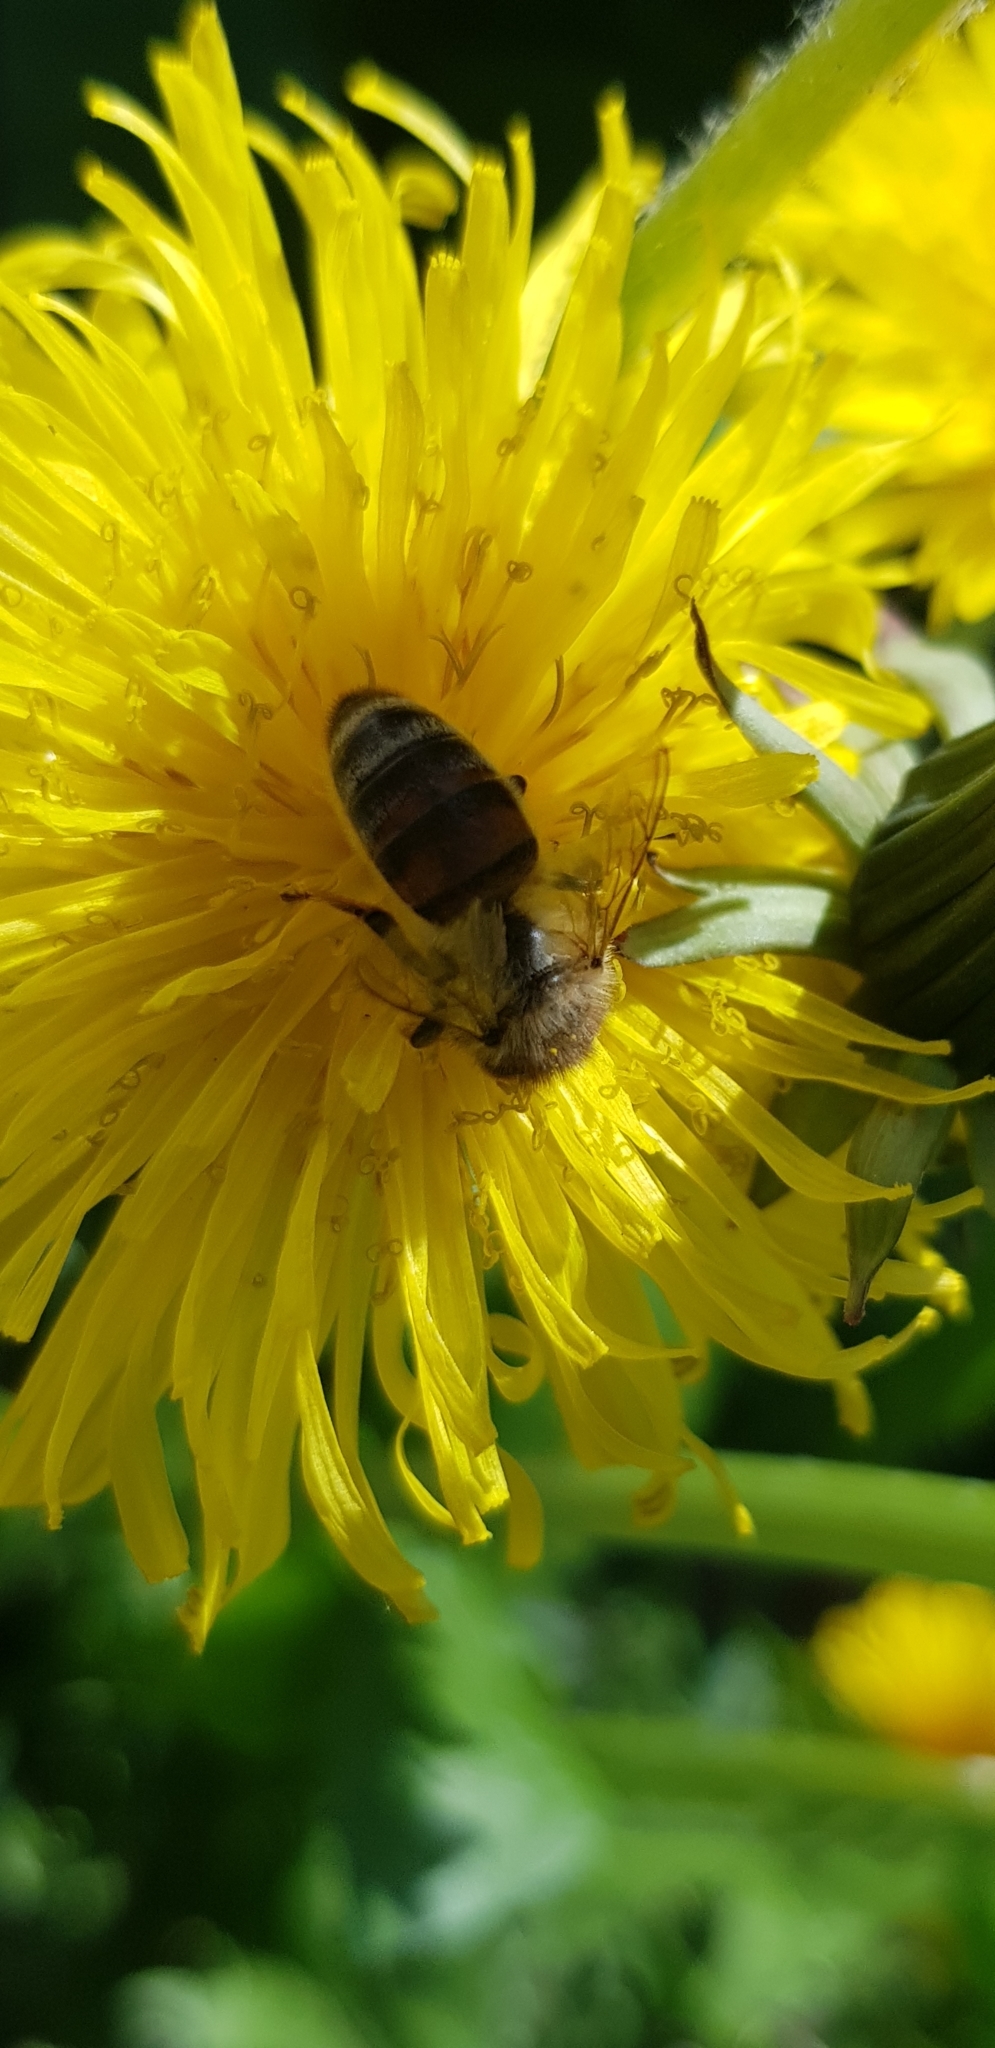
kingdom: Animalia
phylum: Arthropoda
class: Insecta
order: Hymenoptera
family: Apidae
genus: Apis
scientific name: Apis mellifera
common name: Honey bee
